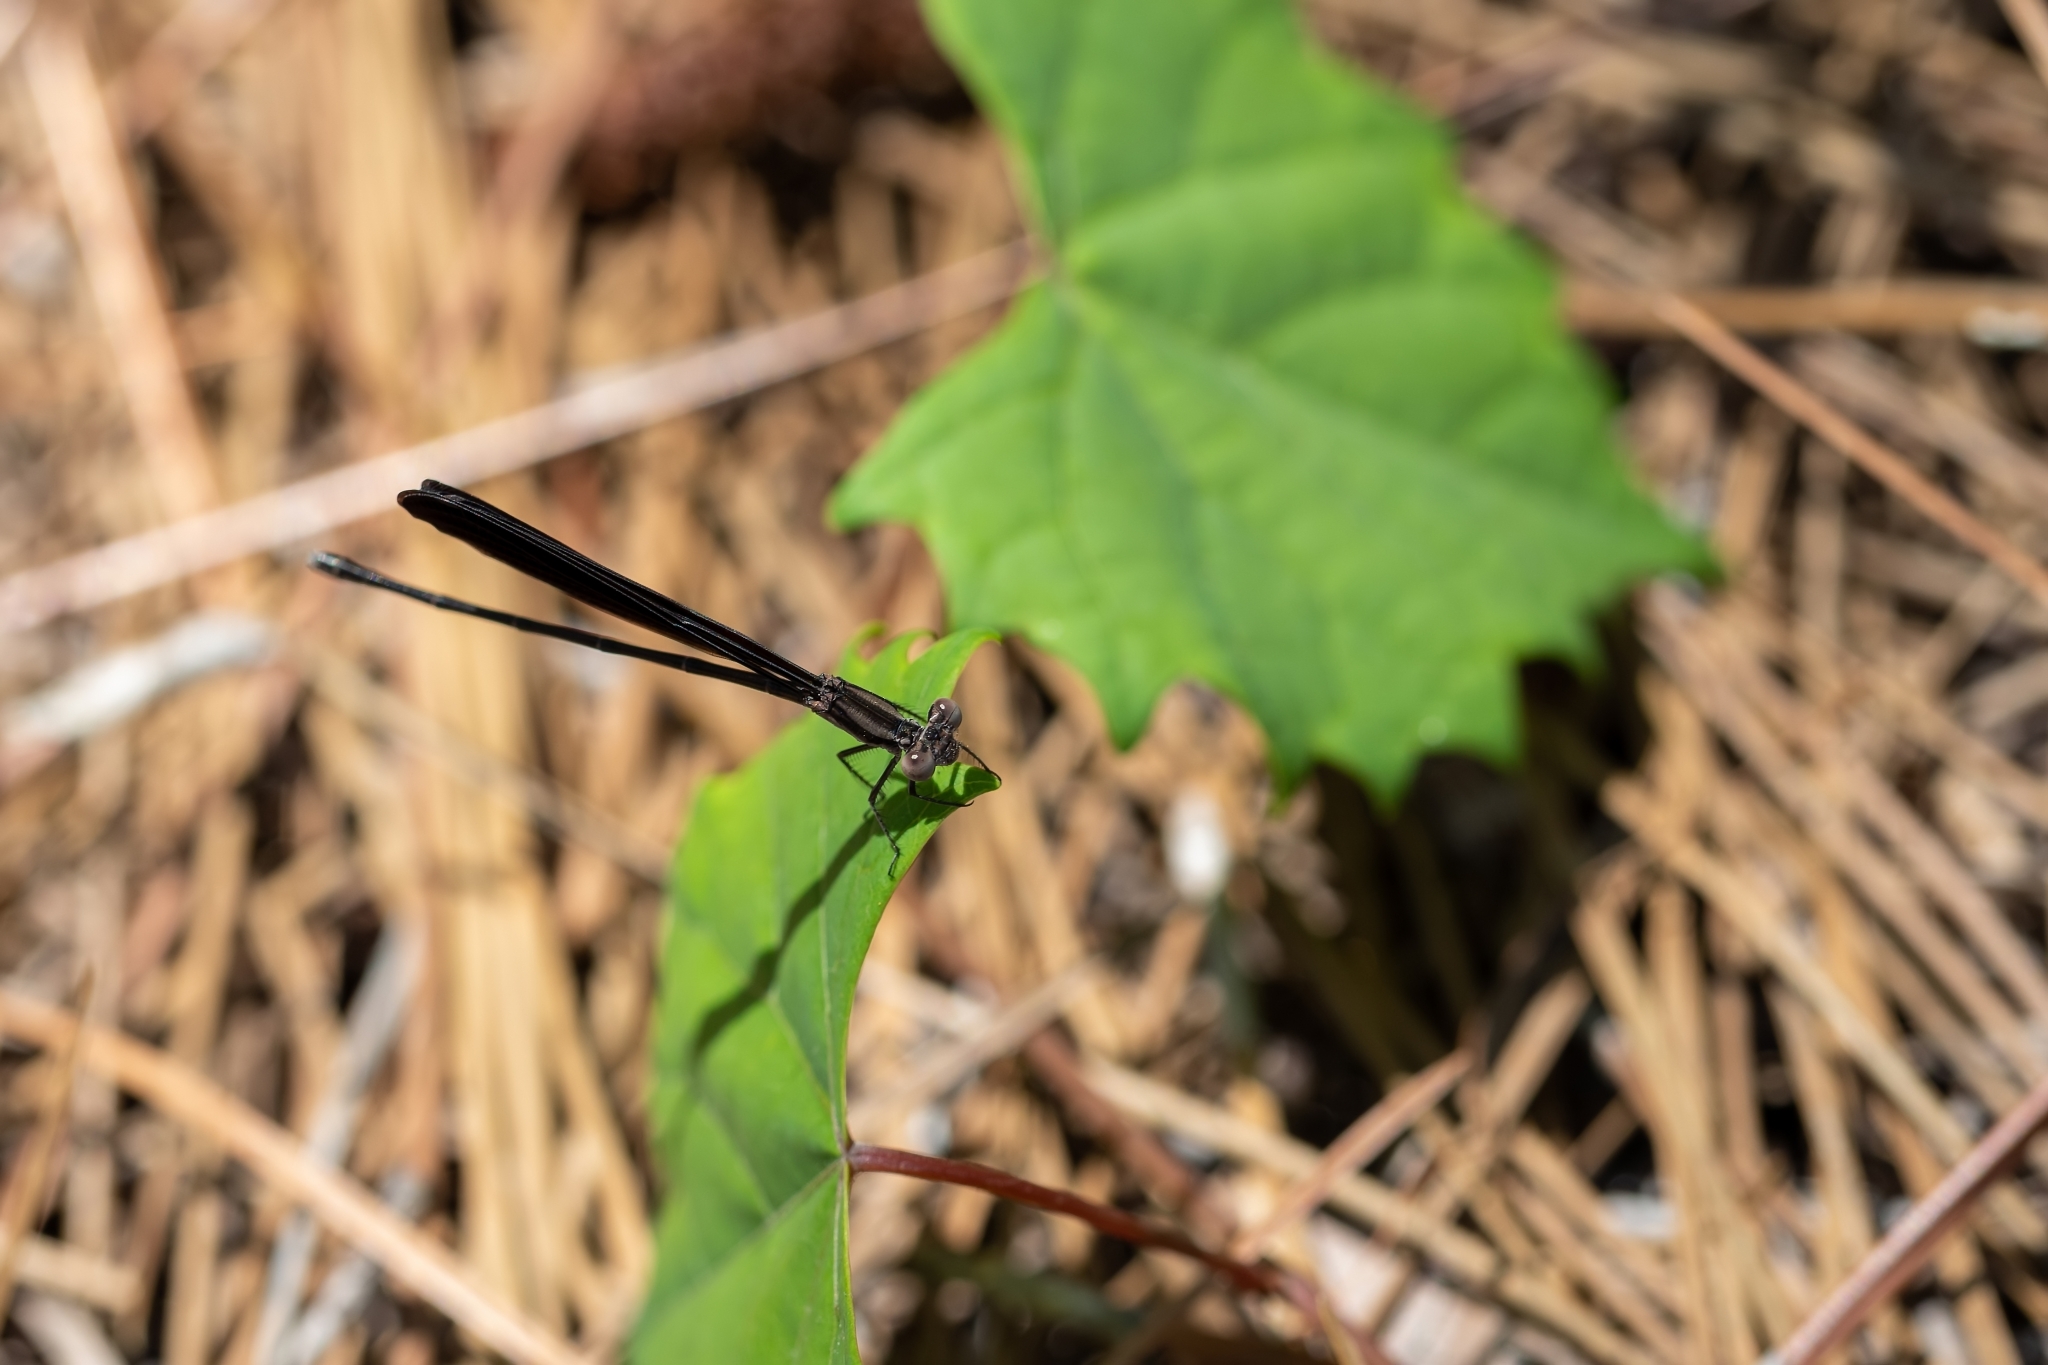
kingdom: Animalia
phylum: Arthropoda
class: Insecta
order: Odonata
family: Coenagrionidae
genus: Argia
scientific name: Argia fumipennis
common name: Variable dancer
